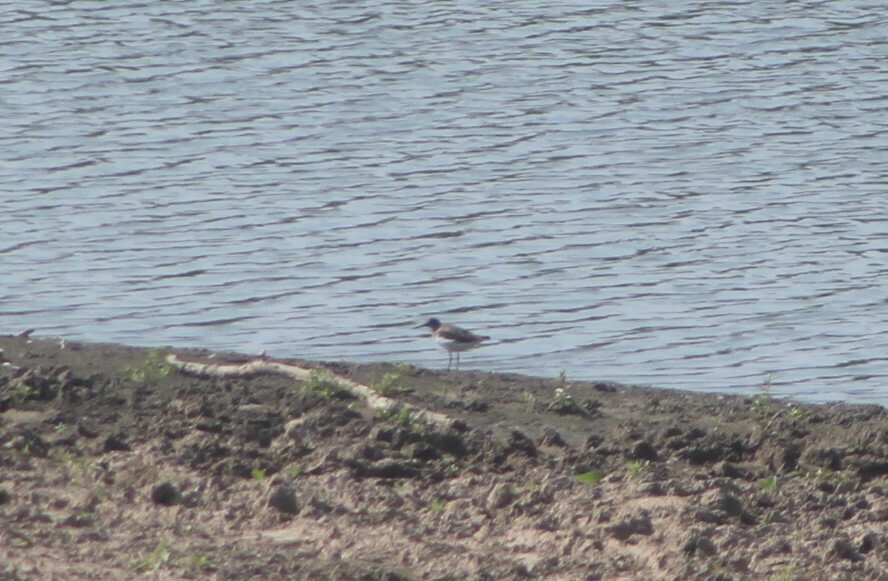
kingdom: Animalia
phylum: Chordata
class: Aves
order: Charadriiformes
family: Scolopacidae
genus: Tringa
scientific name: Tringa ochropus
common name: Green sandpiper
